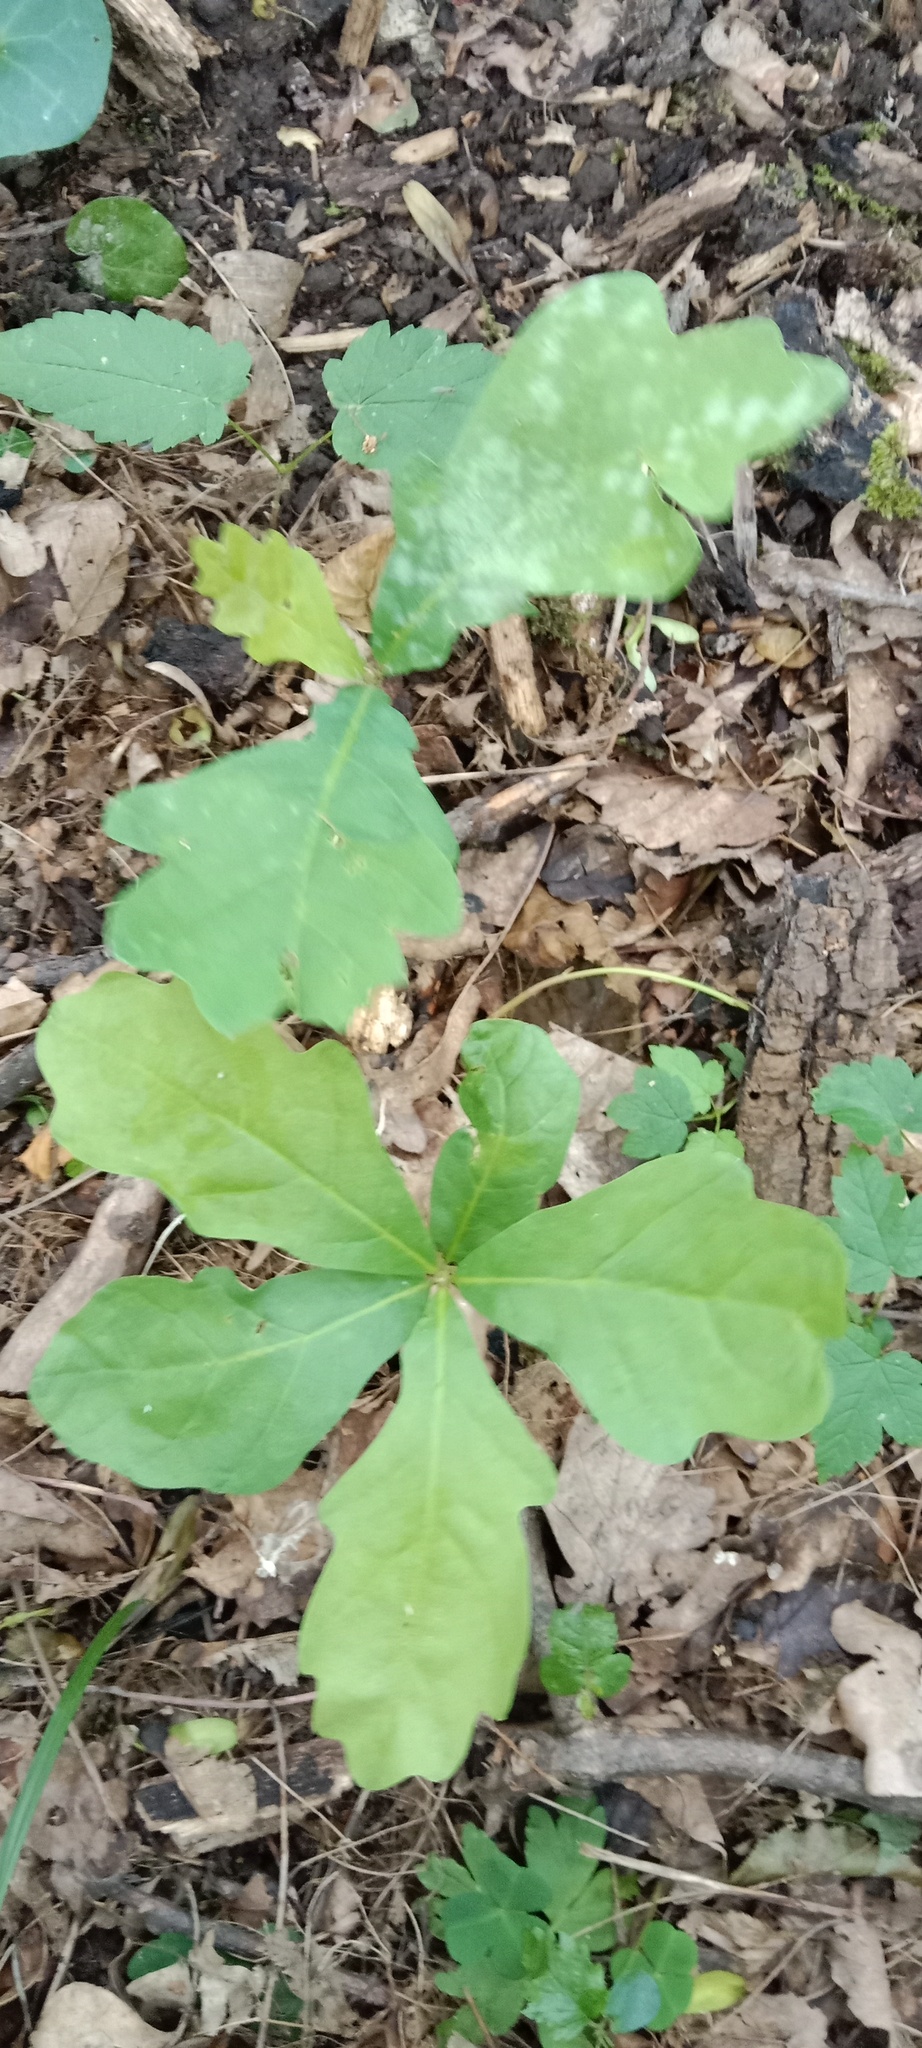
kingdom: Plantae
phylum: Tracheophyta
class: Magnoliopsida
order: Fagales
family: Fagaceae
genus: Quercus
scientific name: Quercus robur
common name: Pedunculate oak
